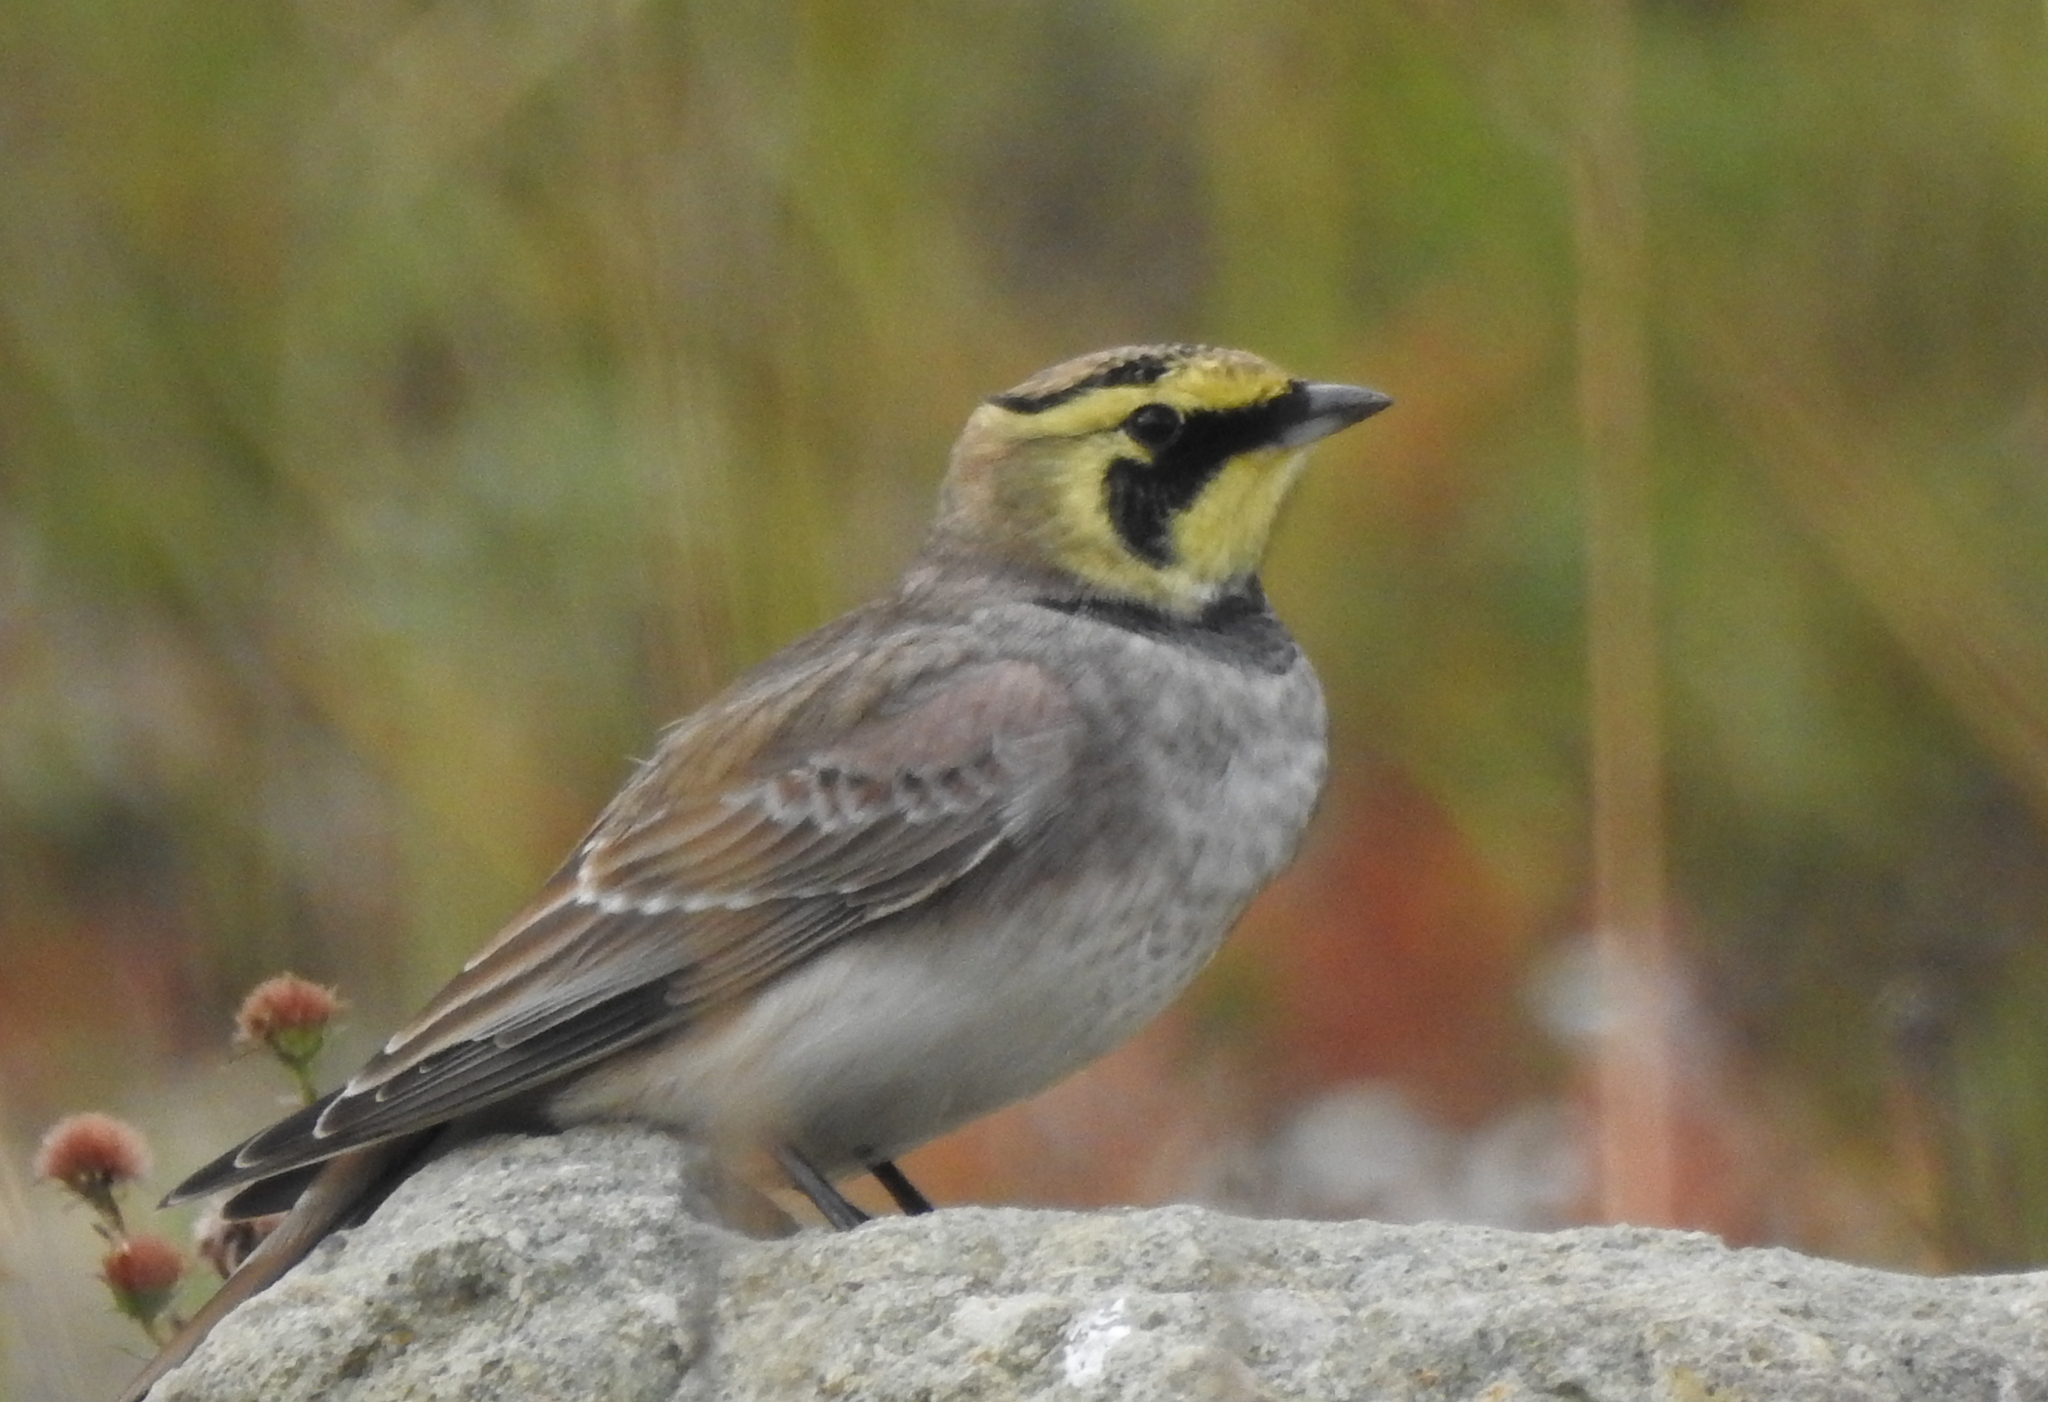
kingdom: Animalia
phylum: Chordata
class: Aves
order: Passeriformes
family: Alaudidae
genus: Eremophila
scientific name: Eremophila alpestris
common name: Horned lark
